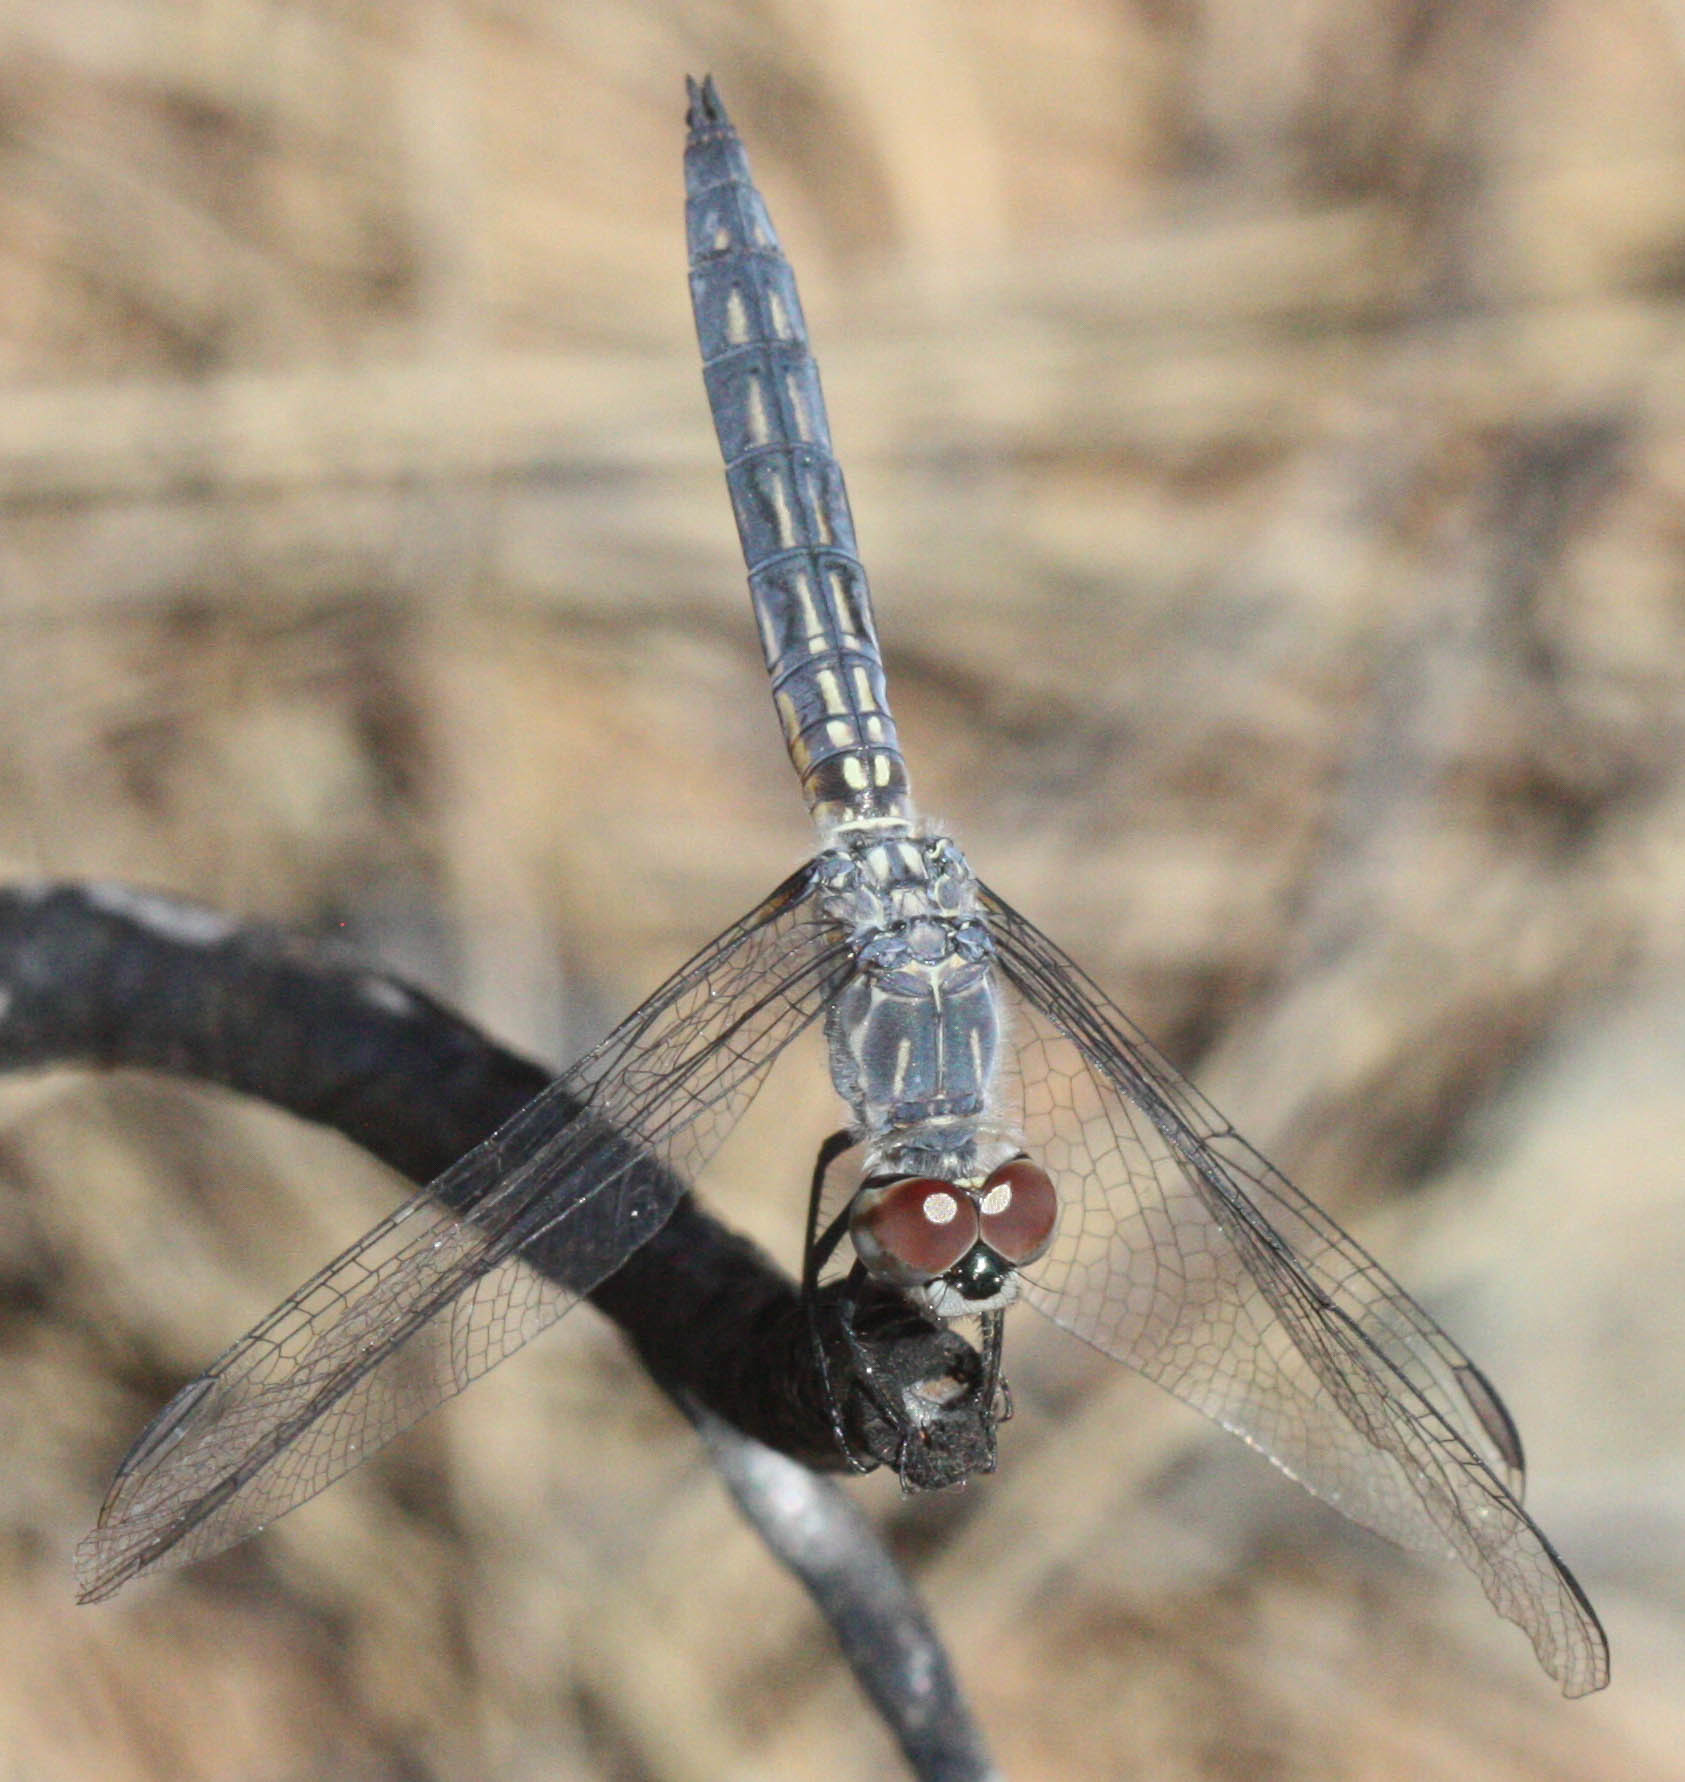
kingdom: Animalia
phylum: Arthropoda
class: Insecta
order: Odonata
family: Libellulidae
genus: Pachydiplax
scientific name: Pachydiplax longipennis
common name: Blue dasher
